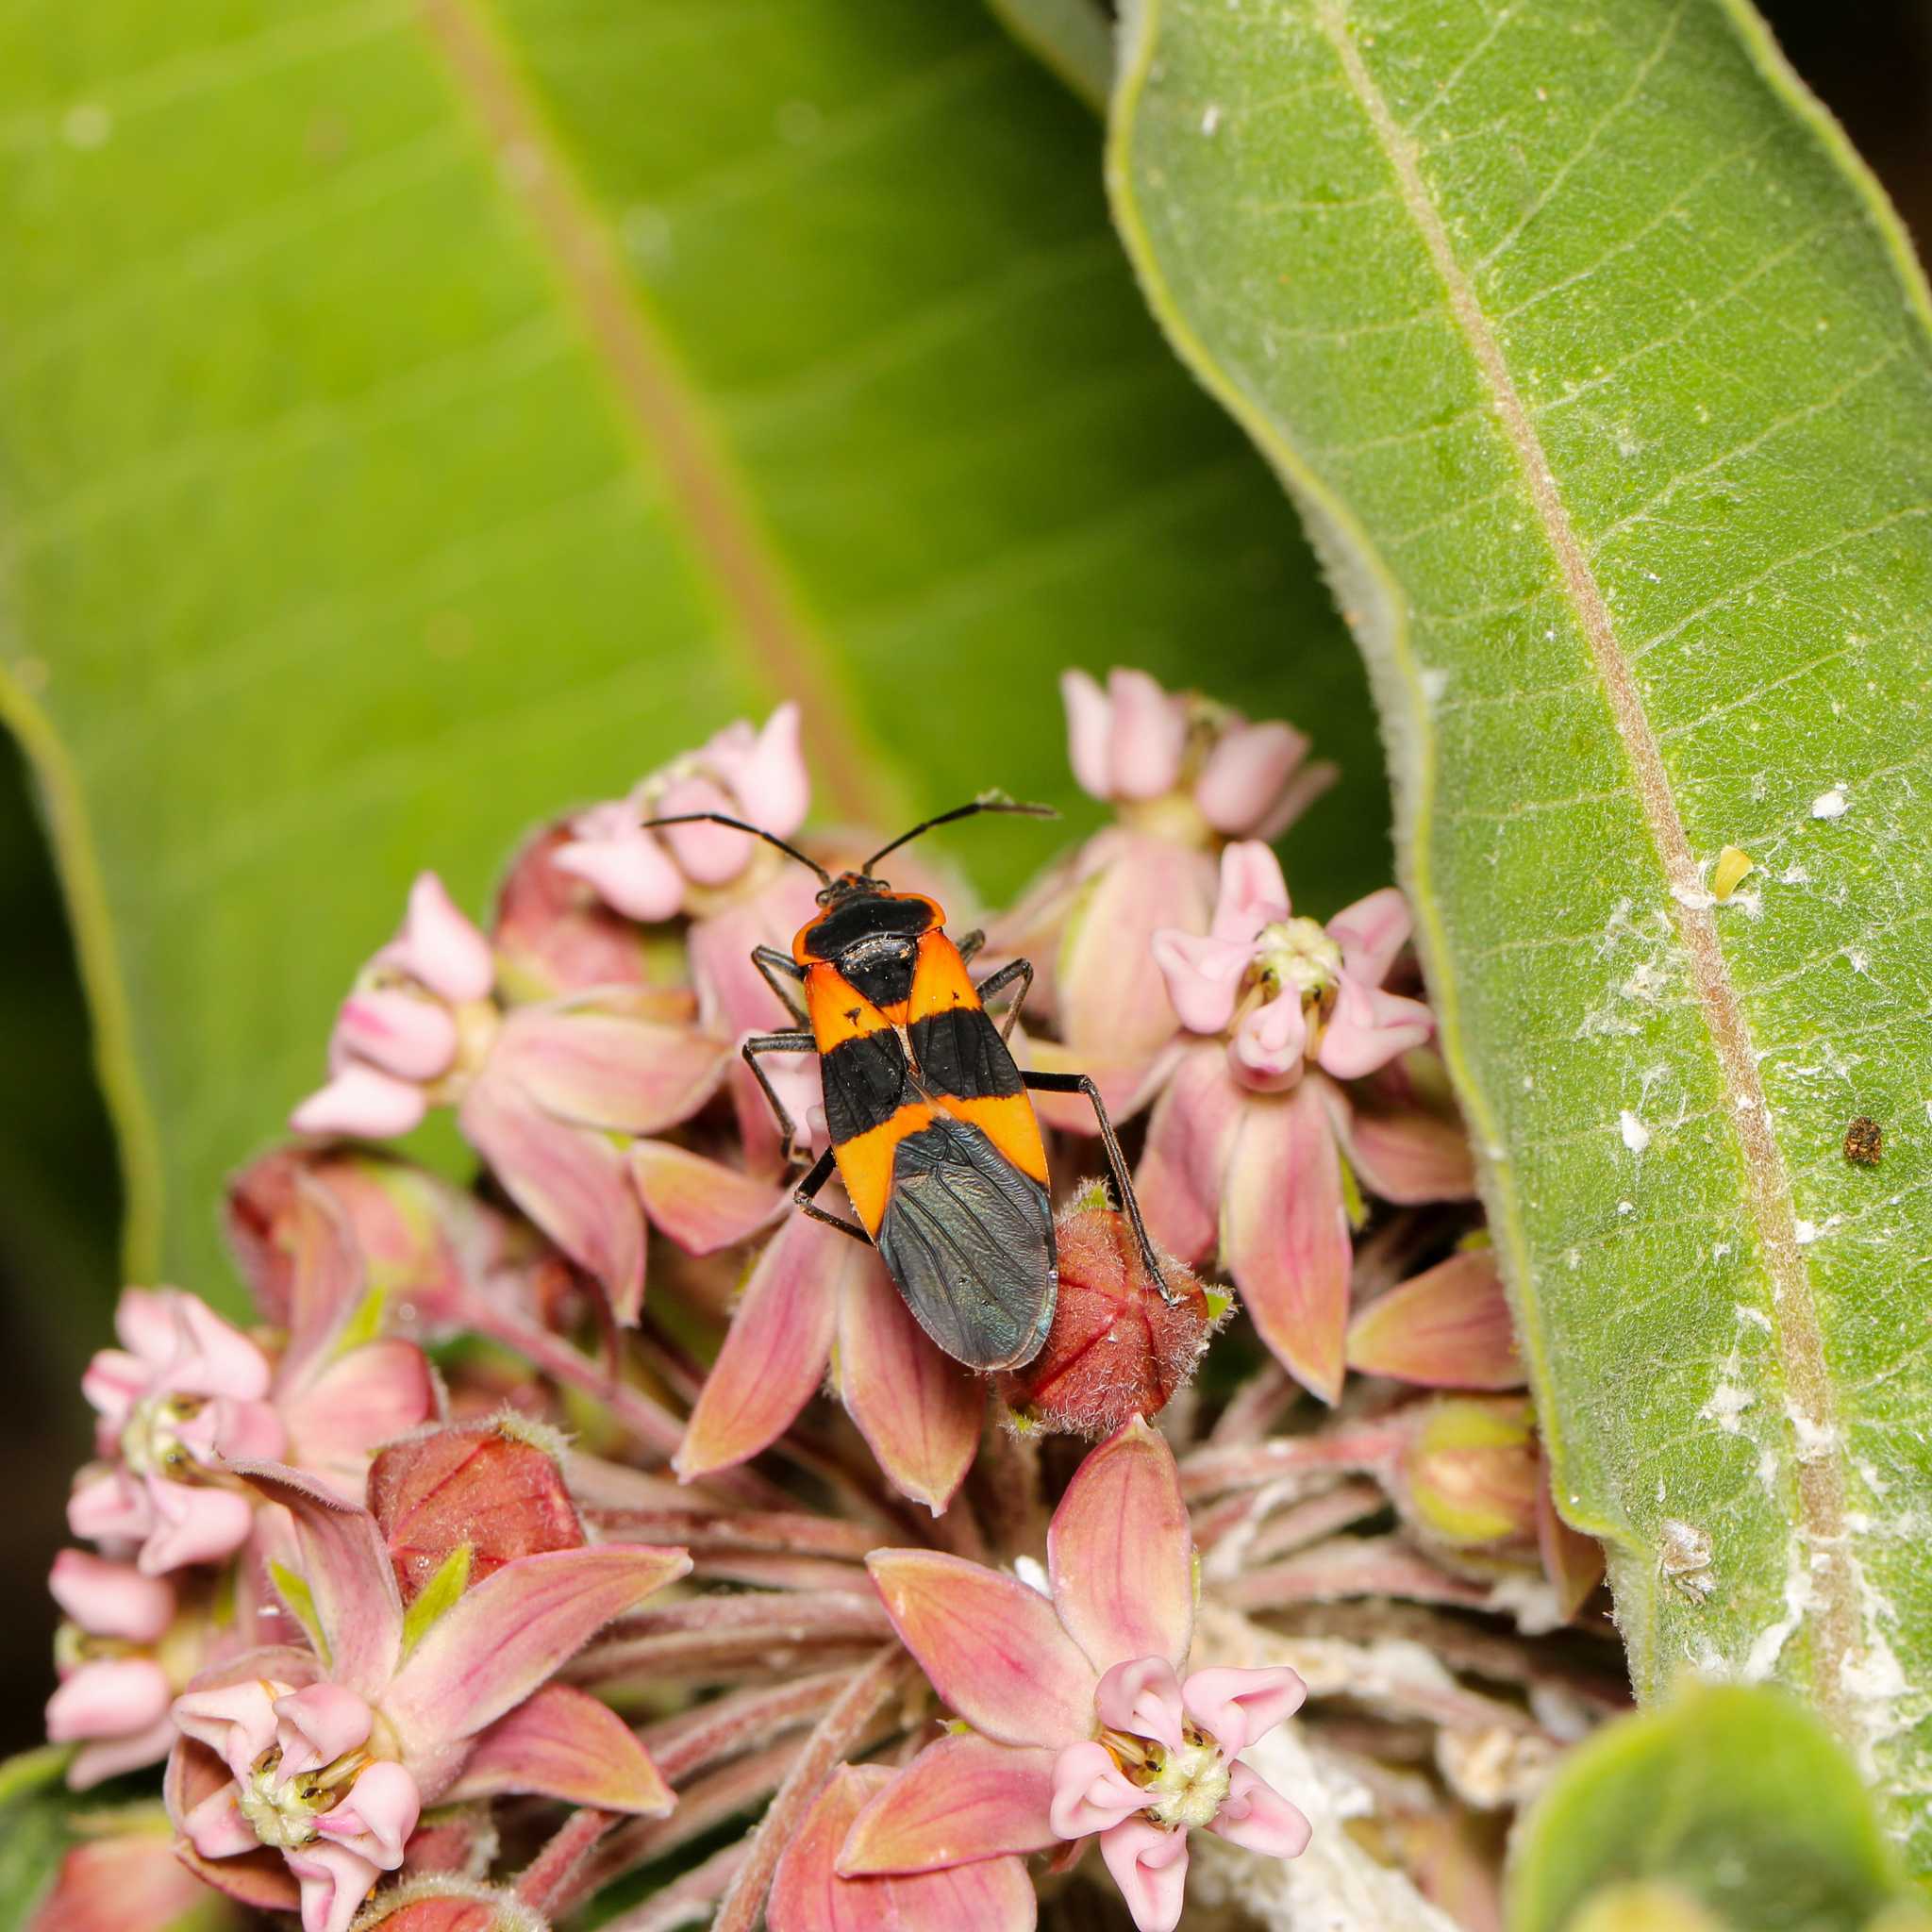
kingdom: Animalia
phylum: Arthropoda
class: Insecta
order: Hemiptera
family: Lygaeidae
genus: Oncopeltus
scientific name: Oncopeltus fasciatus
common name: Large milkweed bug
